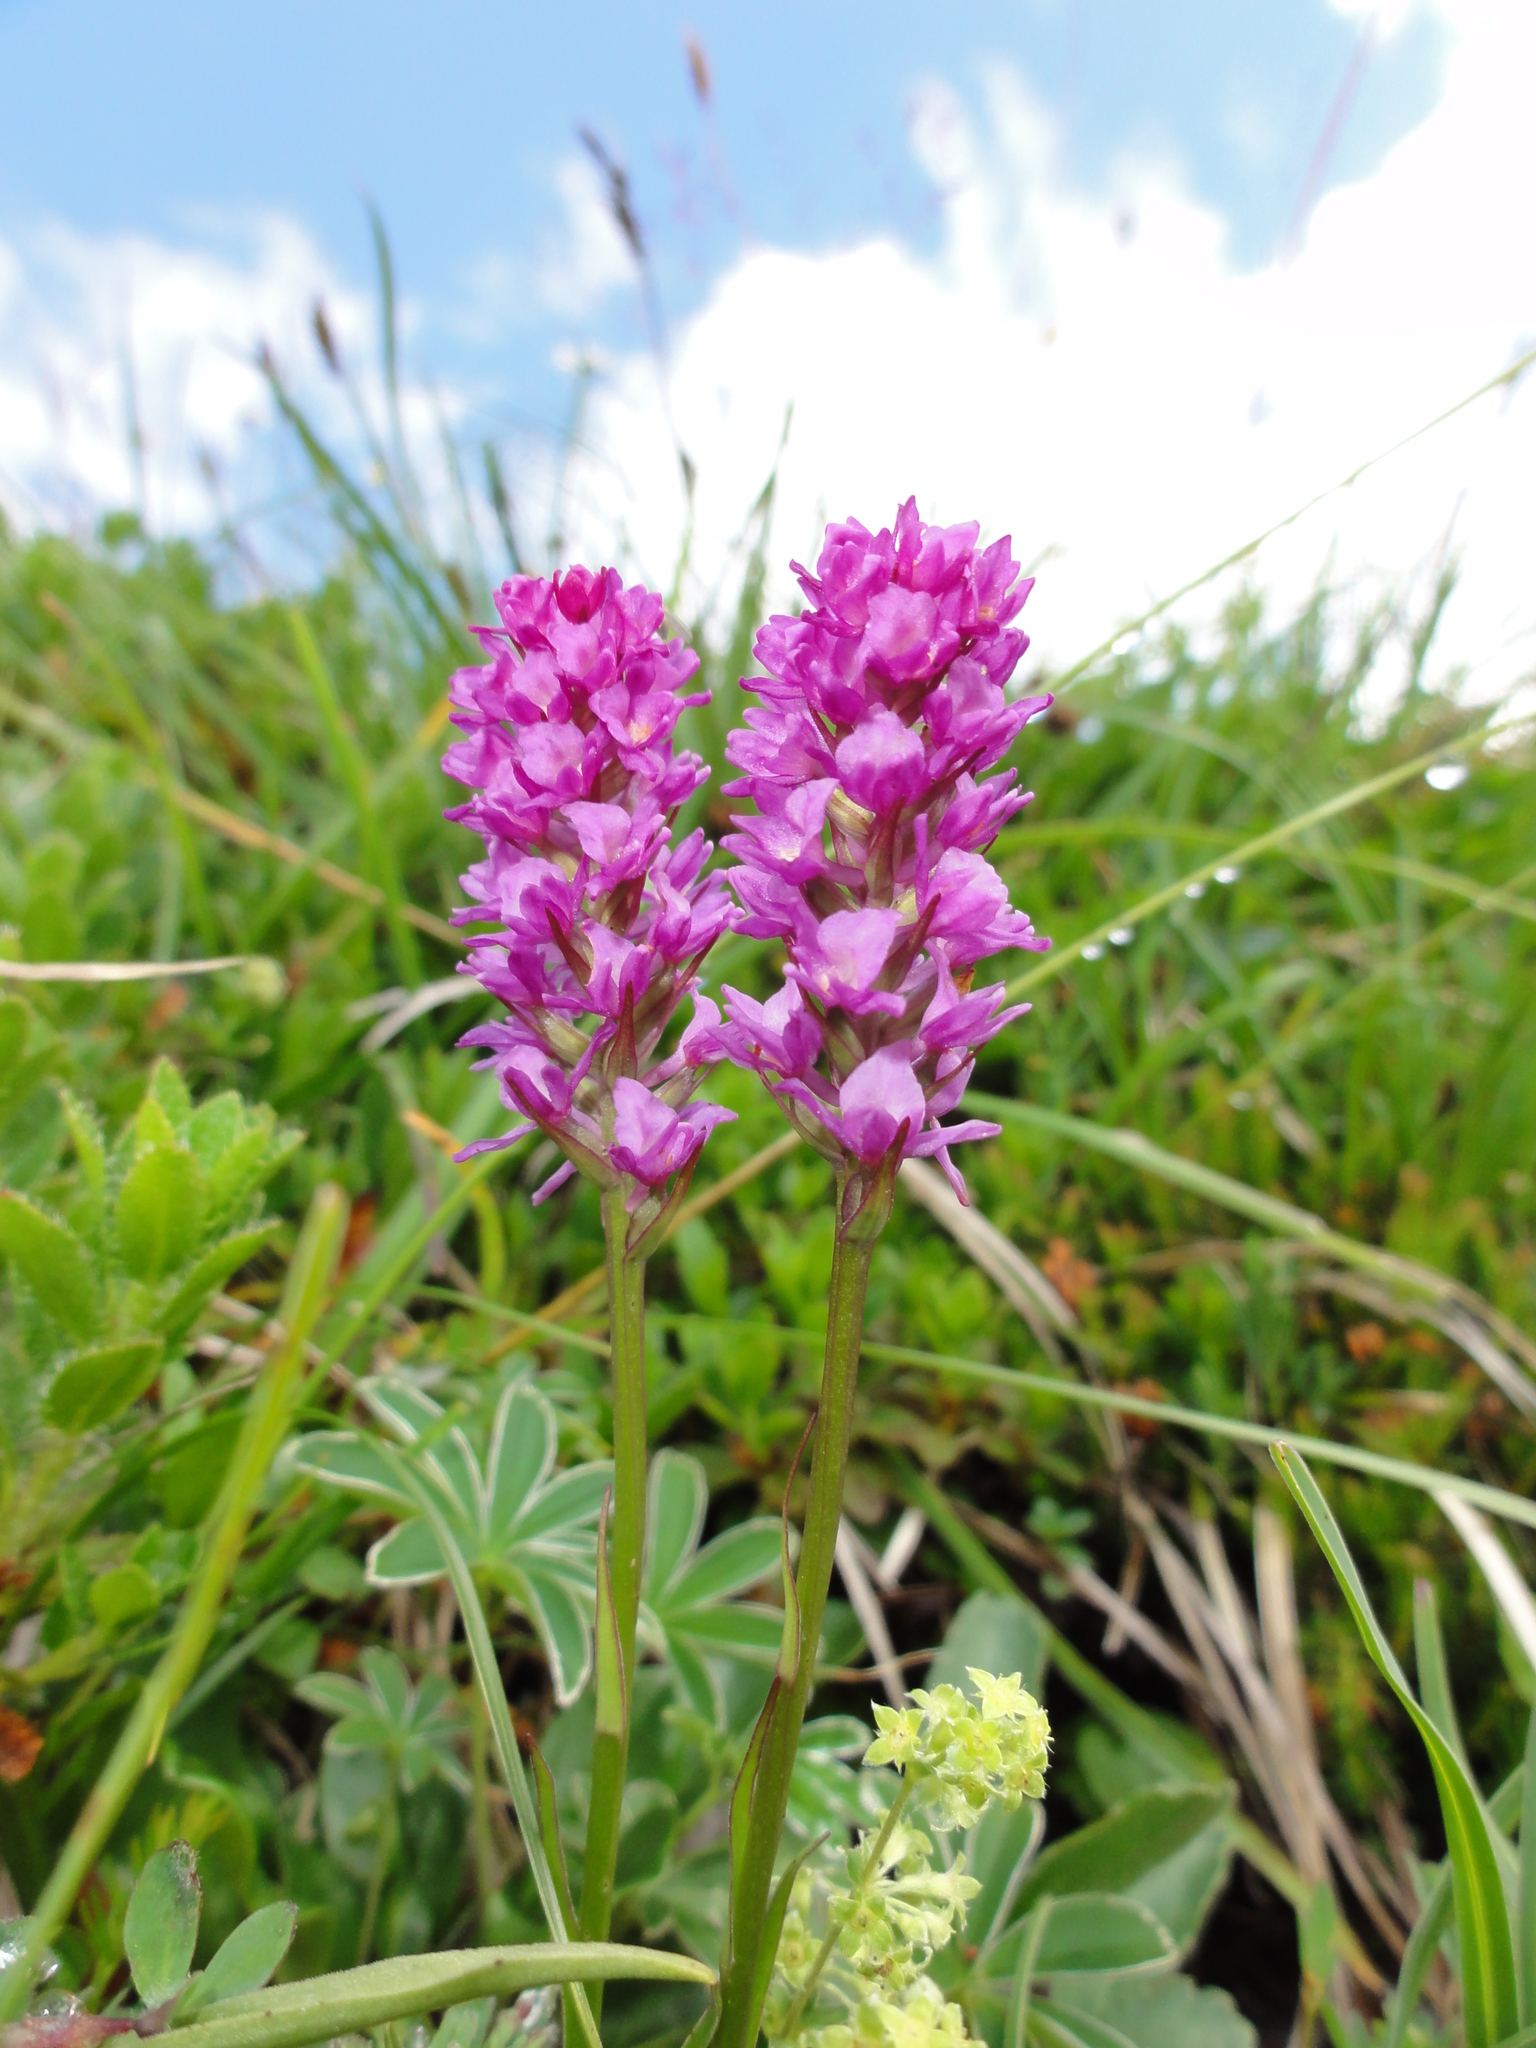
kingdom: Plantae
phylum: Tracheophyta
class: Liliopsida
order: Asparagales
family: Orchidaceae
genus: Gymnadenia
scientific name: Gymnadenia odoratissima
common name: Scented gymnadenia
